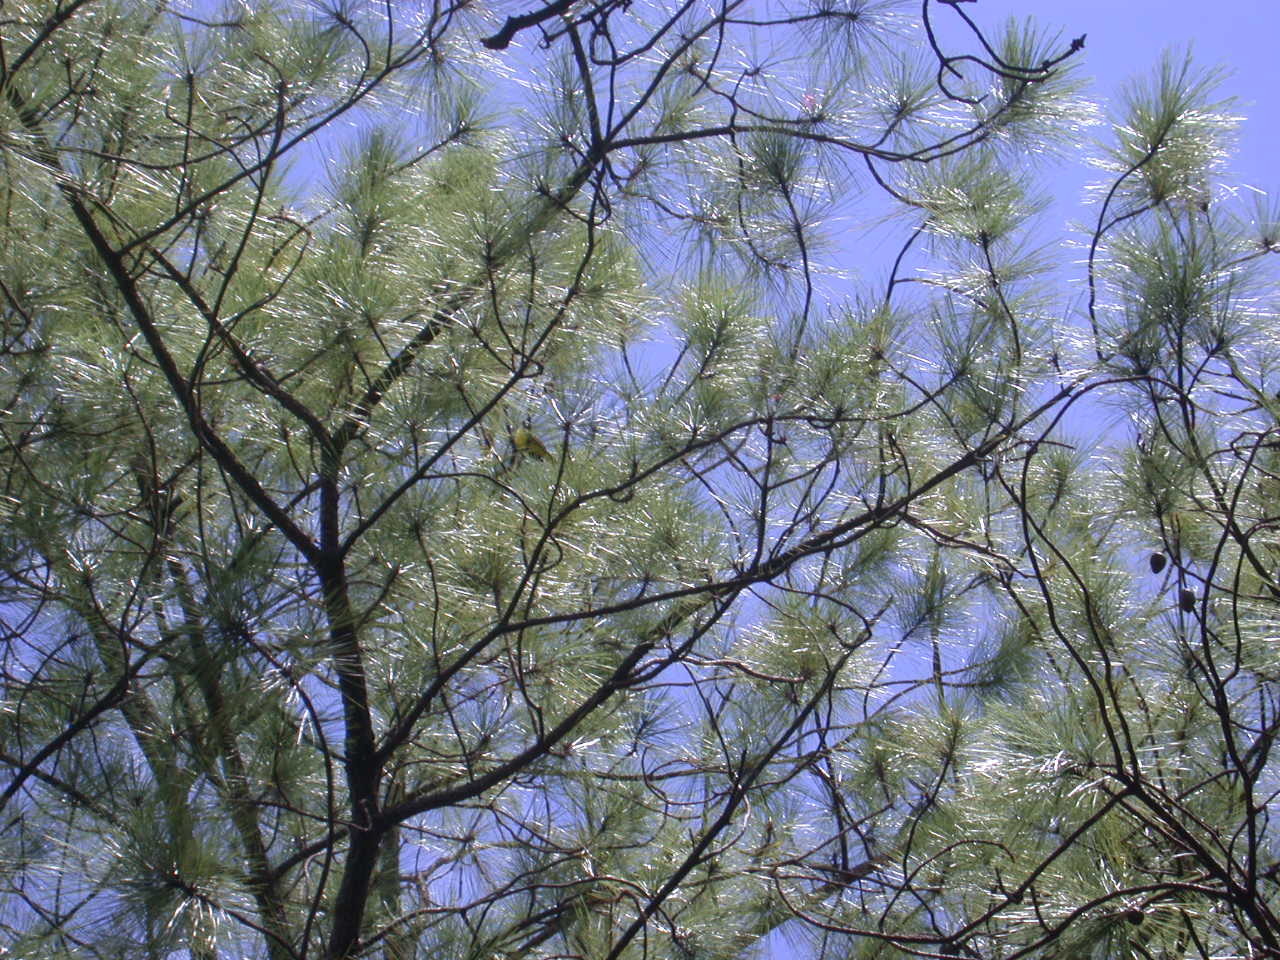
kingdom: Plantae
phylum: Tracheophyta
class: Pinopsida
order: Pinales
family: Pinaceae
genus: Pinus
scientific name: Pinus oocarpa
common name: Egg-cone pine
